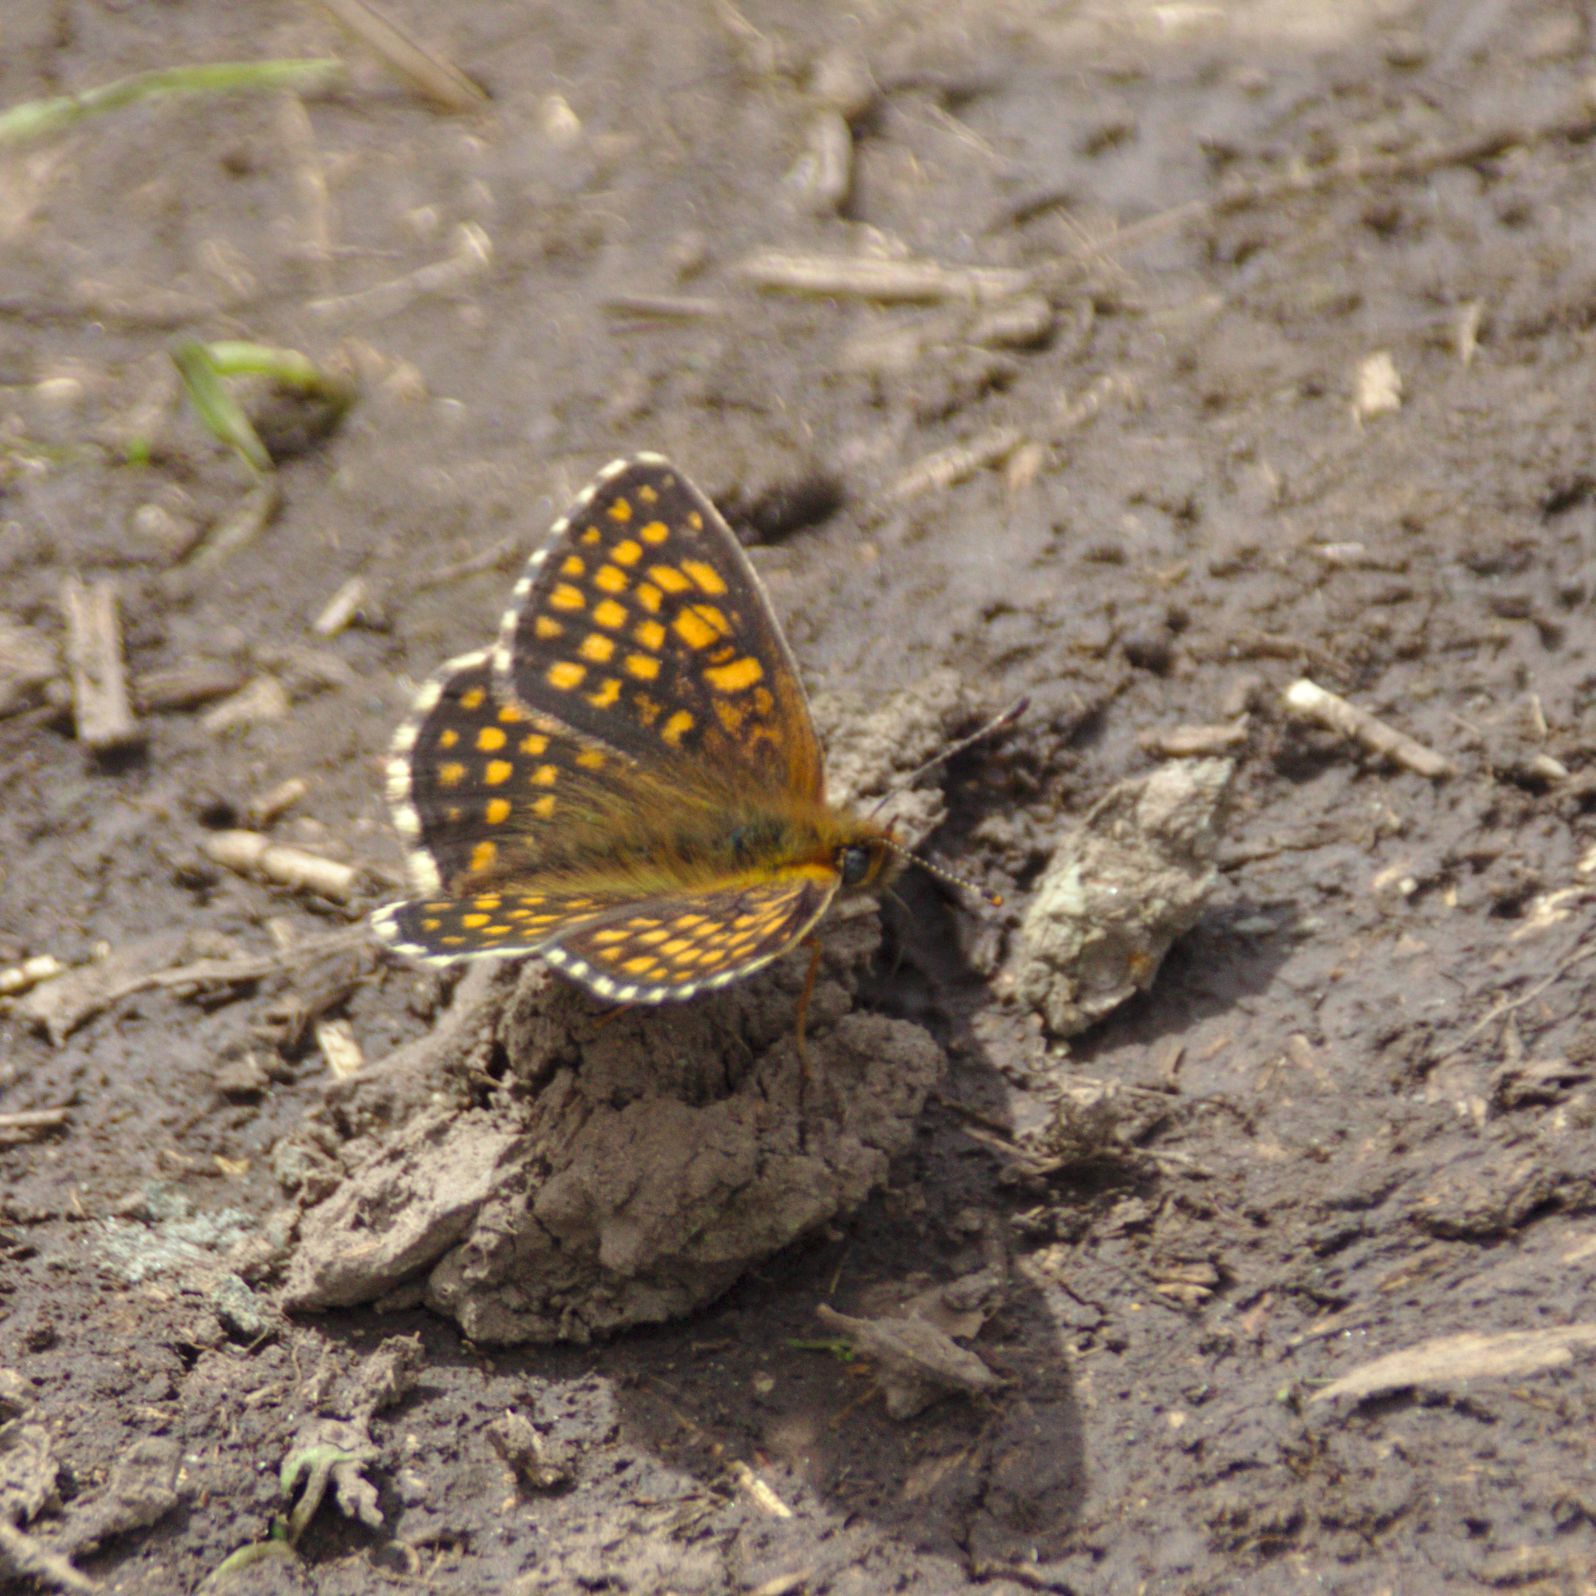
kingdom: Animalia
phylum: Arthropoda
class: Insecta
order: Lepidoptera
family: Nymphalidae
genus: Melitaea
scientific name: Melitaea athalia
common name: Heath fritillary
